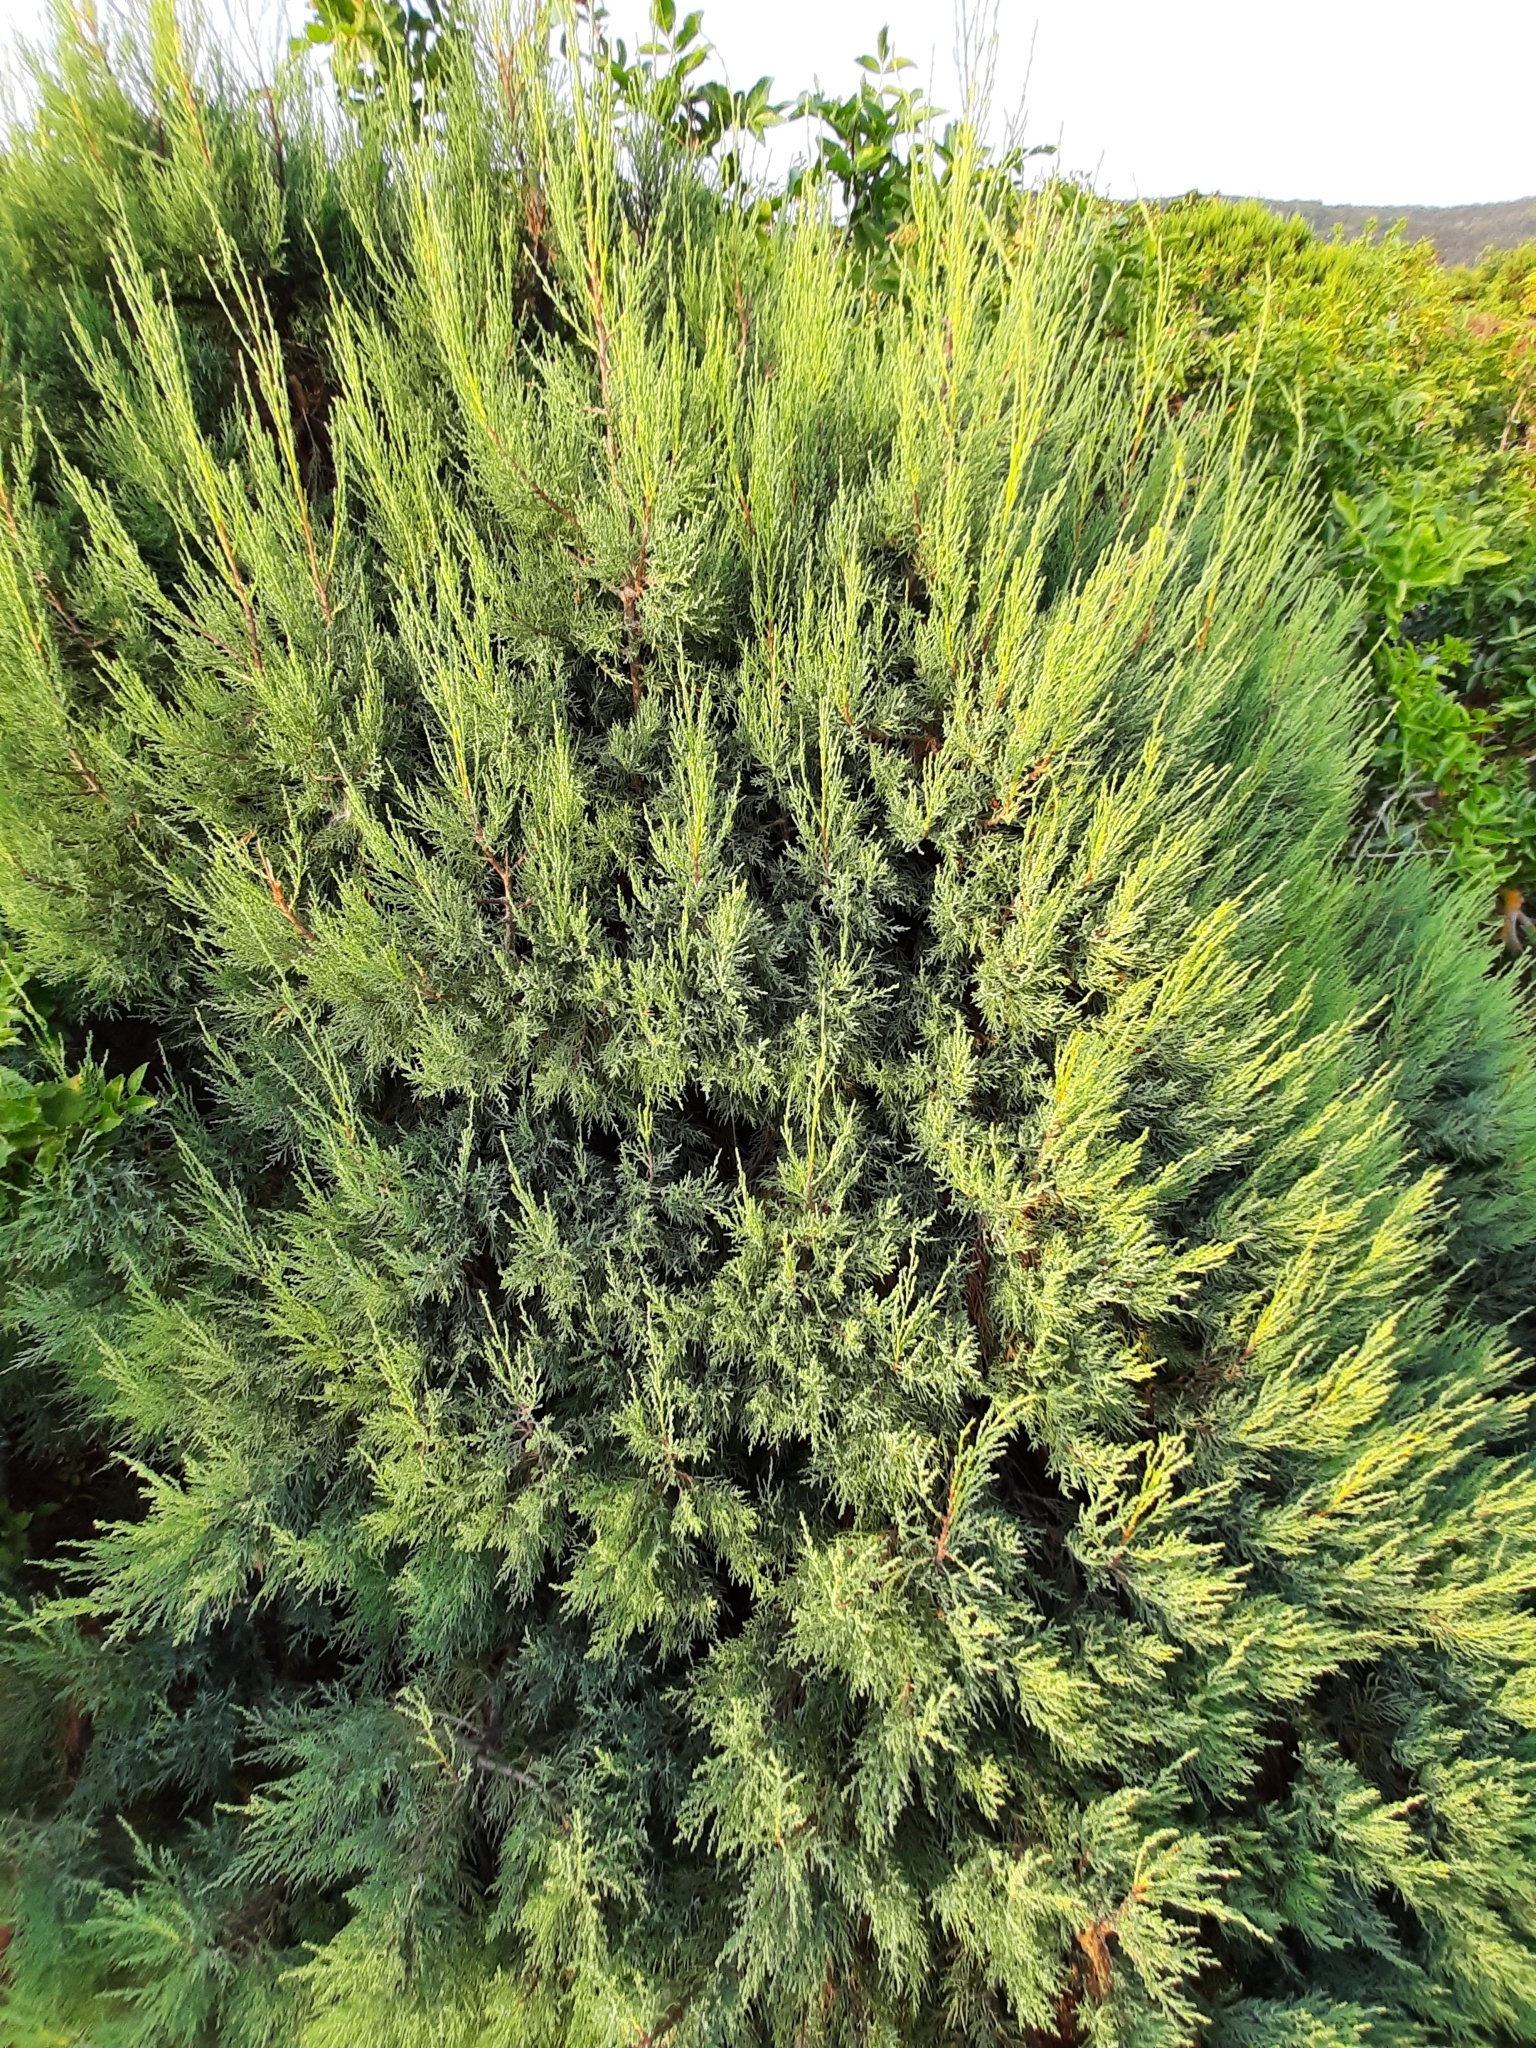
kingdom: Plantae
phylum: Tracheophyta
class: Pinopsida
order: Pinales
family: Cupressaceae
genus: Juniperus
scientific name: Juniperus excelsa
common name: Crimean juniper
